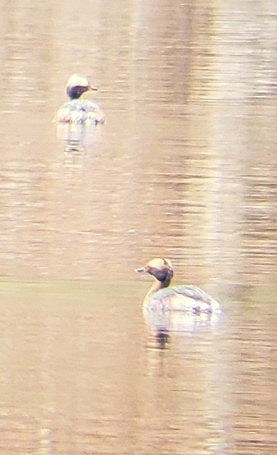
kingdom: Animalia
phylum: Chordata
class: Aves
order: Podicipediformes
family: Podicipedidae
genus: Podiceps
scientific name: Podiceps auritus
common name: Horned grebe
